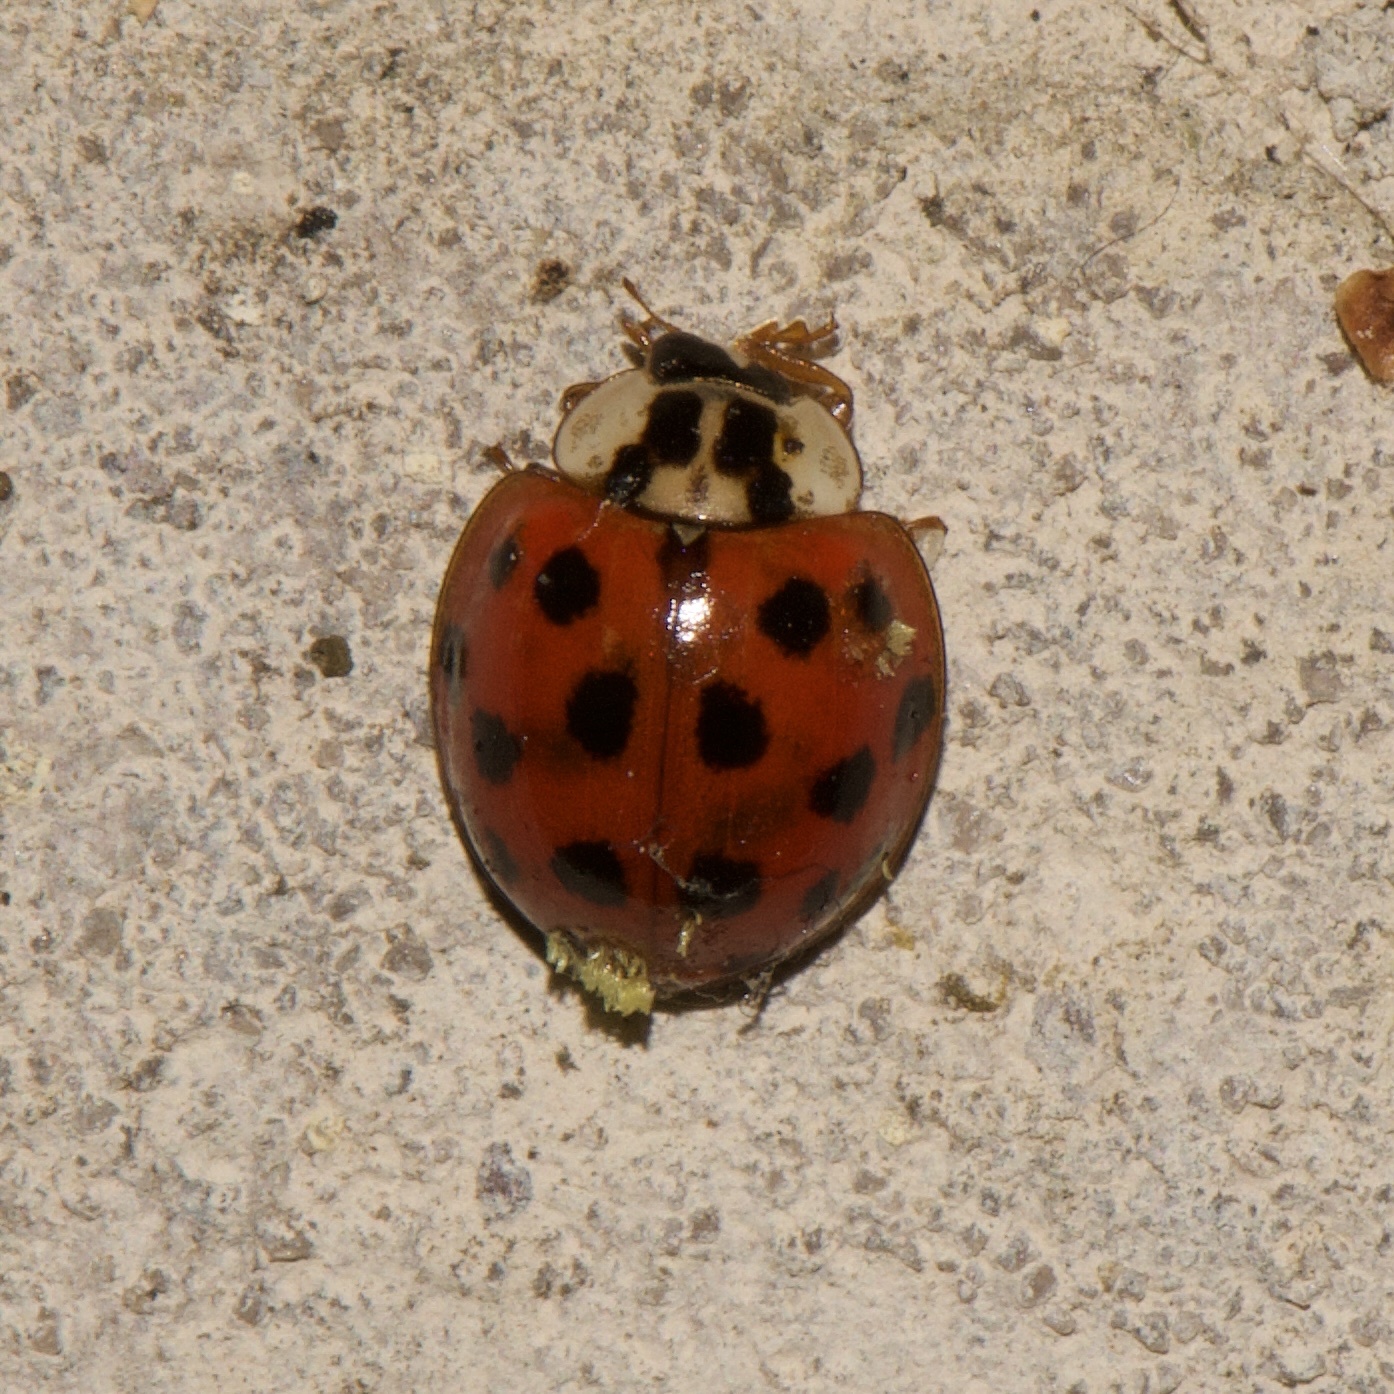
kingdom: Animalia
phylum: Arthropoda
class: Insecta
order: Coleoptera
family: Coccinellidae
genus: Harmonia
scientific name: Harmonia axyridis
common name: Harlequin ladybird
